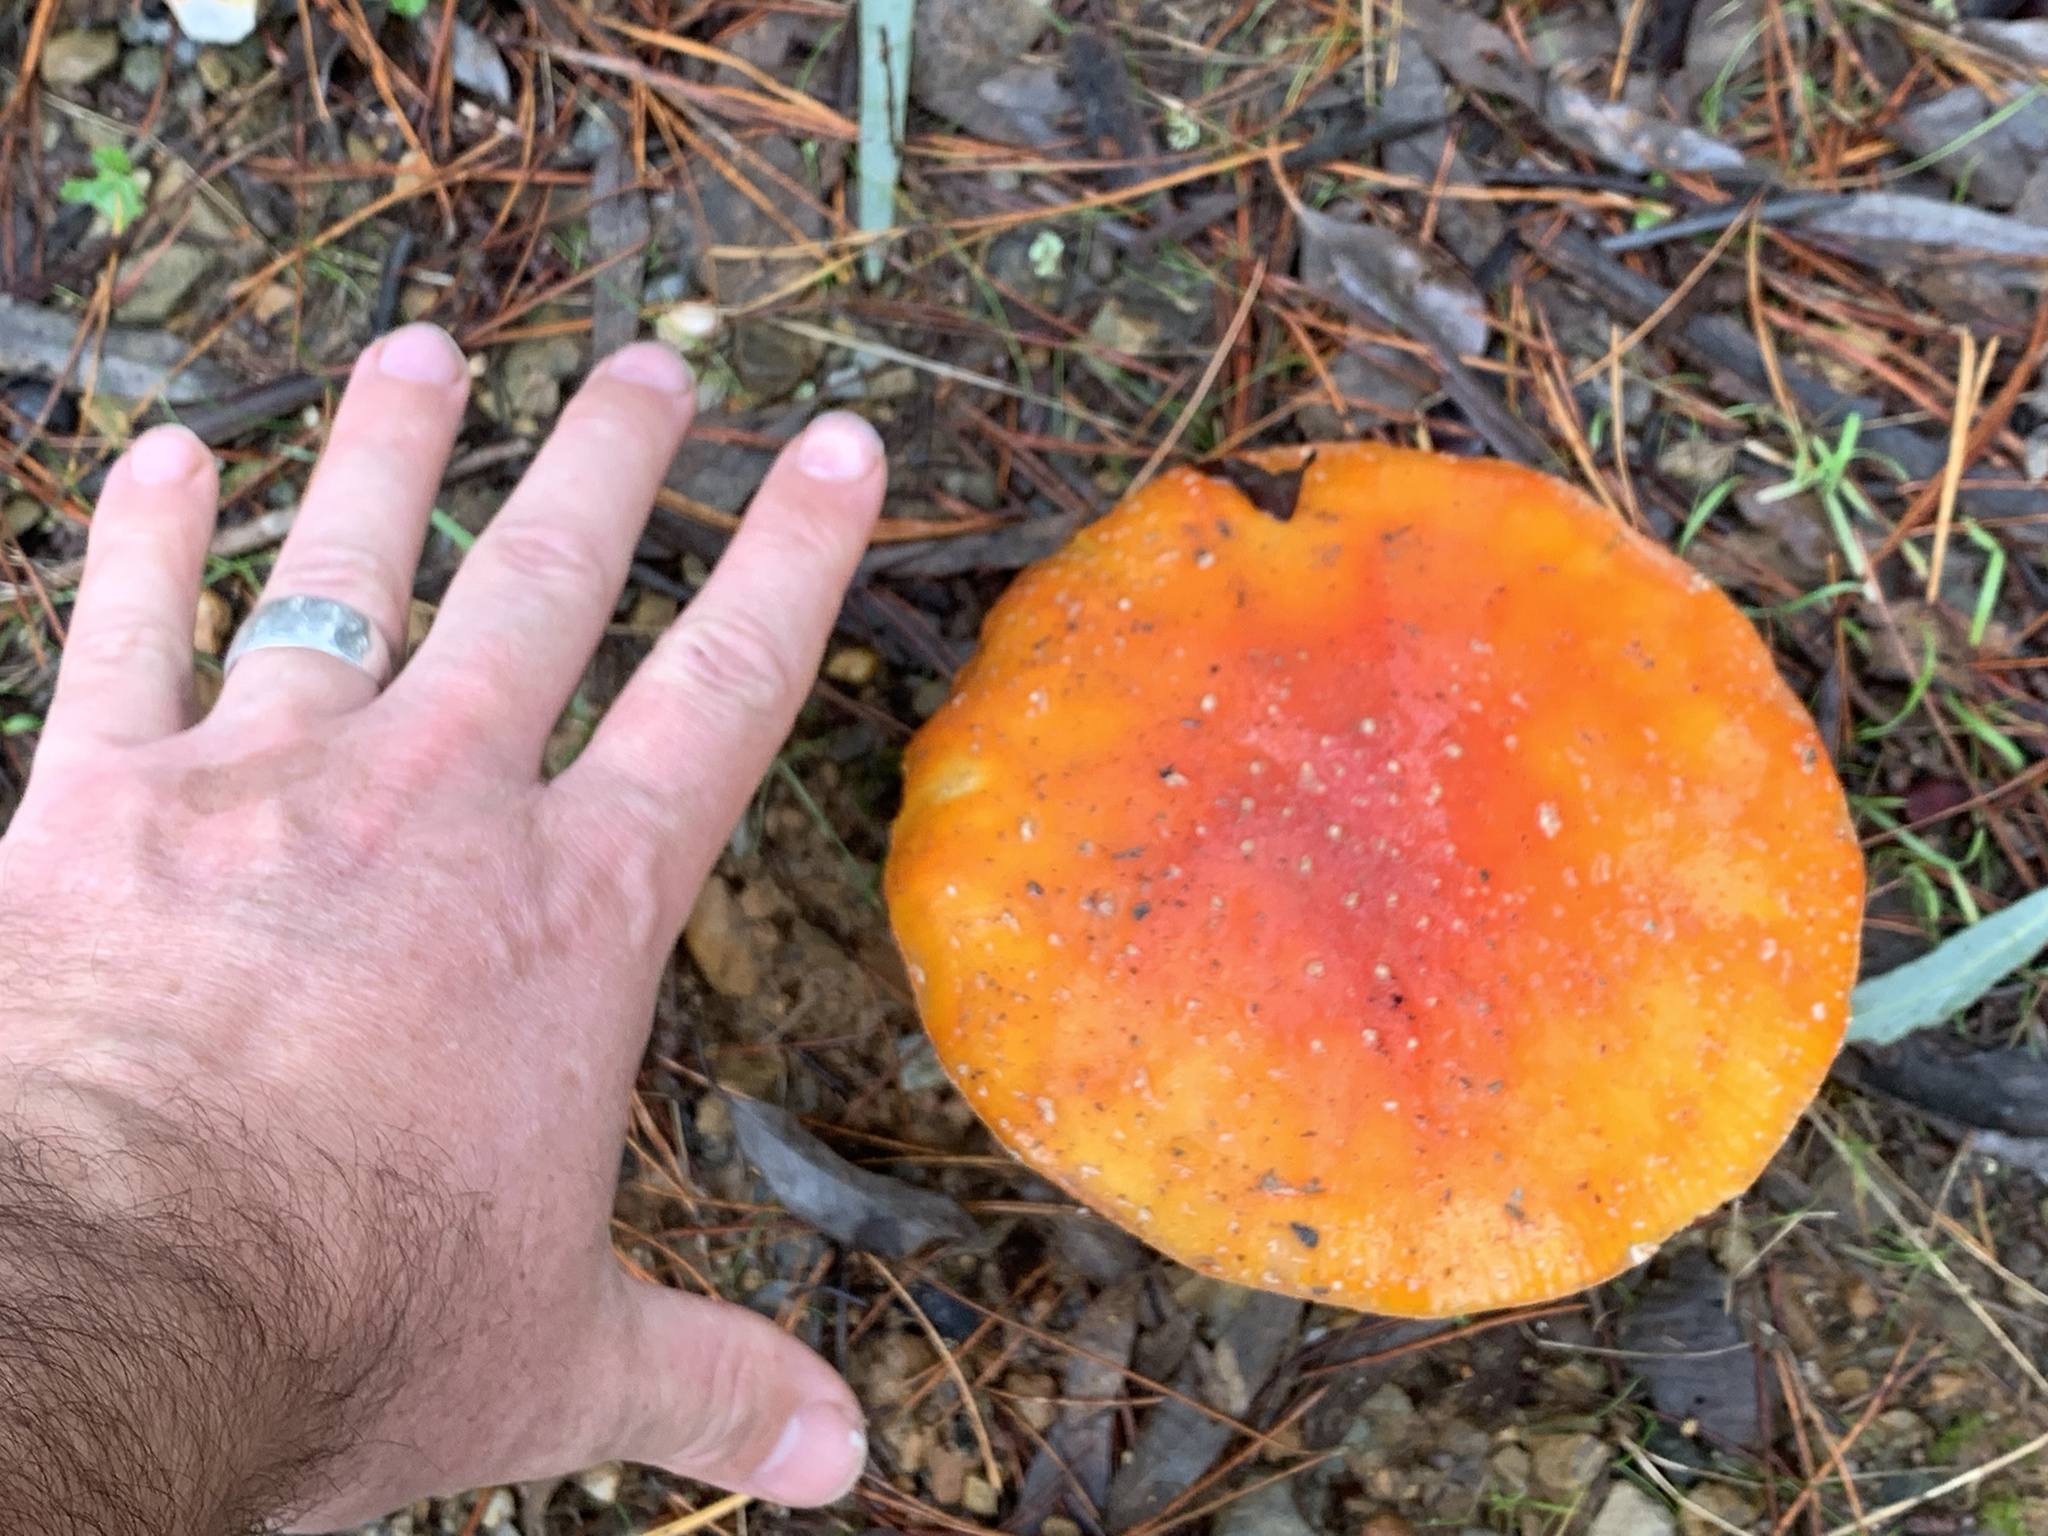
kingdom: Fungi
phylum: Basidiomycota
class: Agaricomycetes
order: Agaricales
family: Amanitaceae
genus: Amanita
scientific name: Amanita muscaria
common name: Fly agaric
